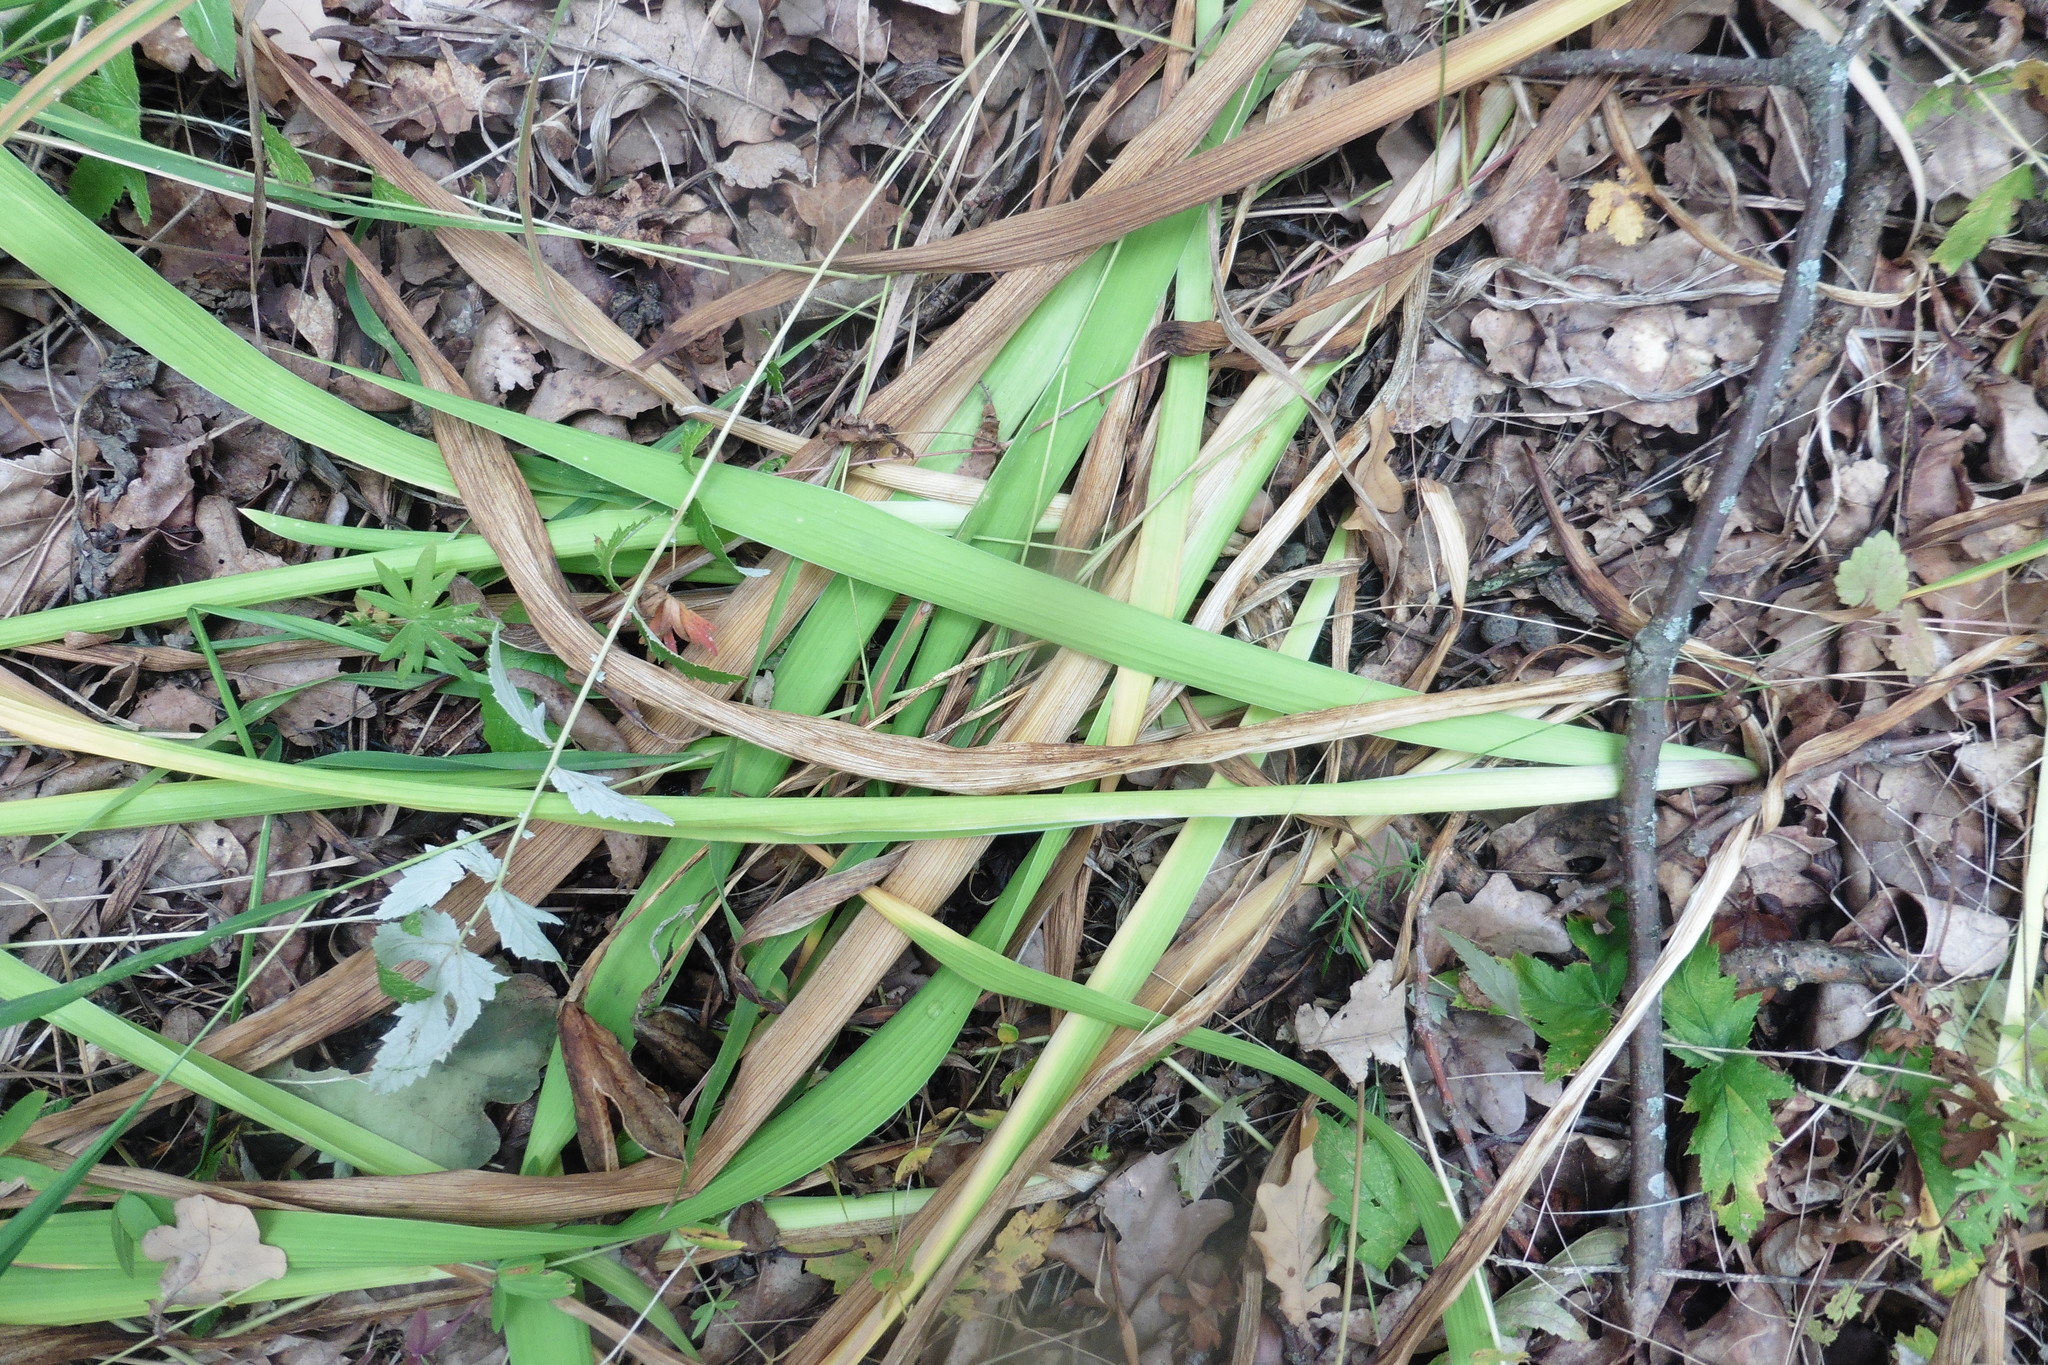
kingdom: Plantae
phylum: Tracheophyta
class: Liliopsida
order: Asparagales
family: Iridaceae
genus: Iris
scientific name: Iris aphylla
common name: Stool iris
